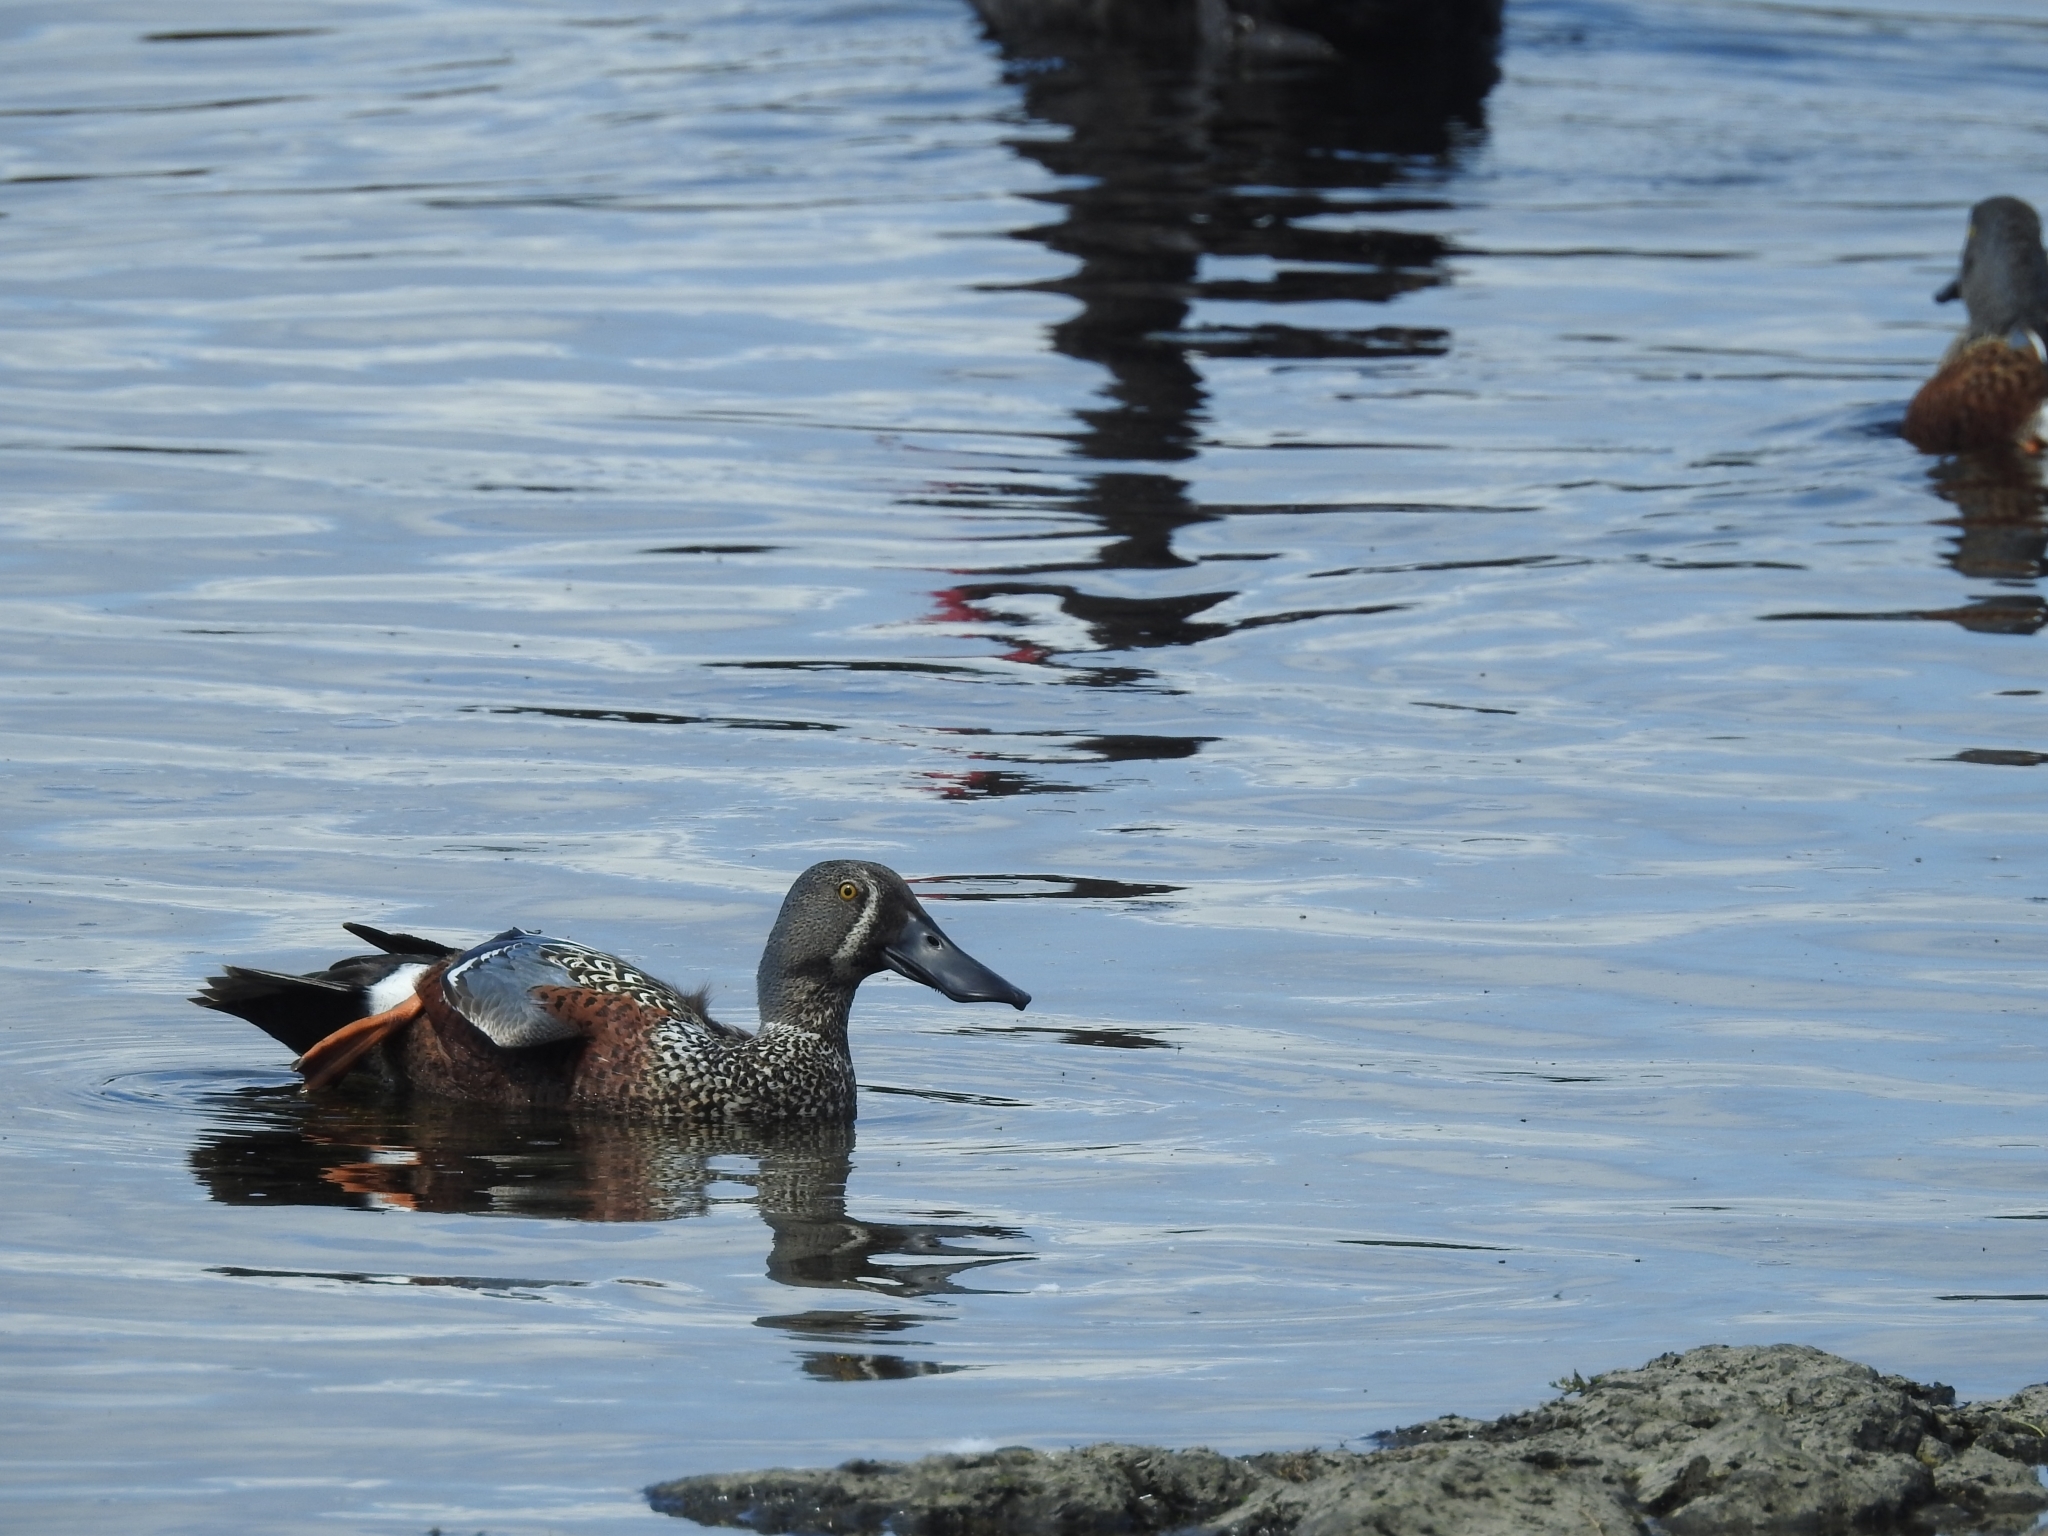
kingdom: Animalia
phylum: Chordata
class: Aves
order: Anseriformes
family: Anatidae
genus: Spatula
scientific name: Spatula rhynchotis
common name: Australian shoveler
